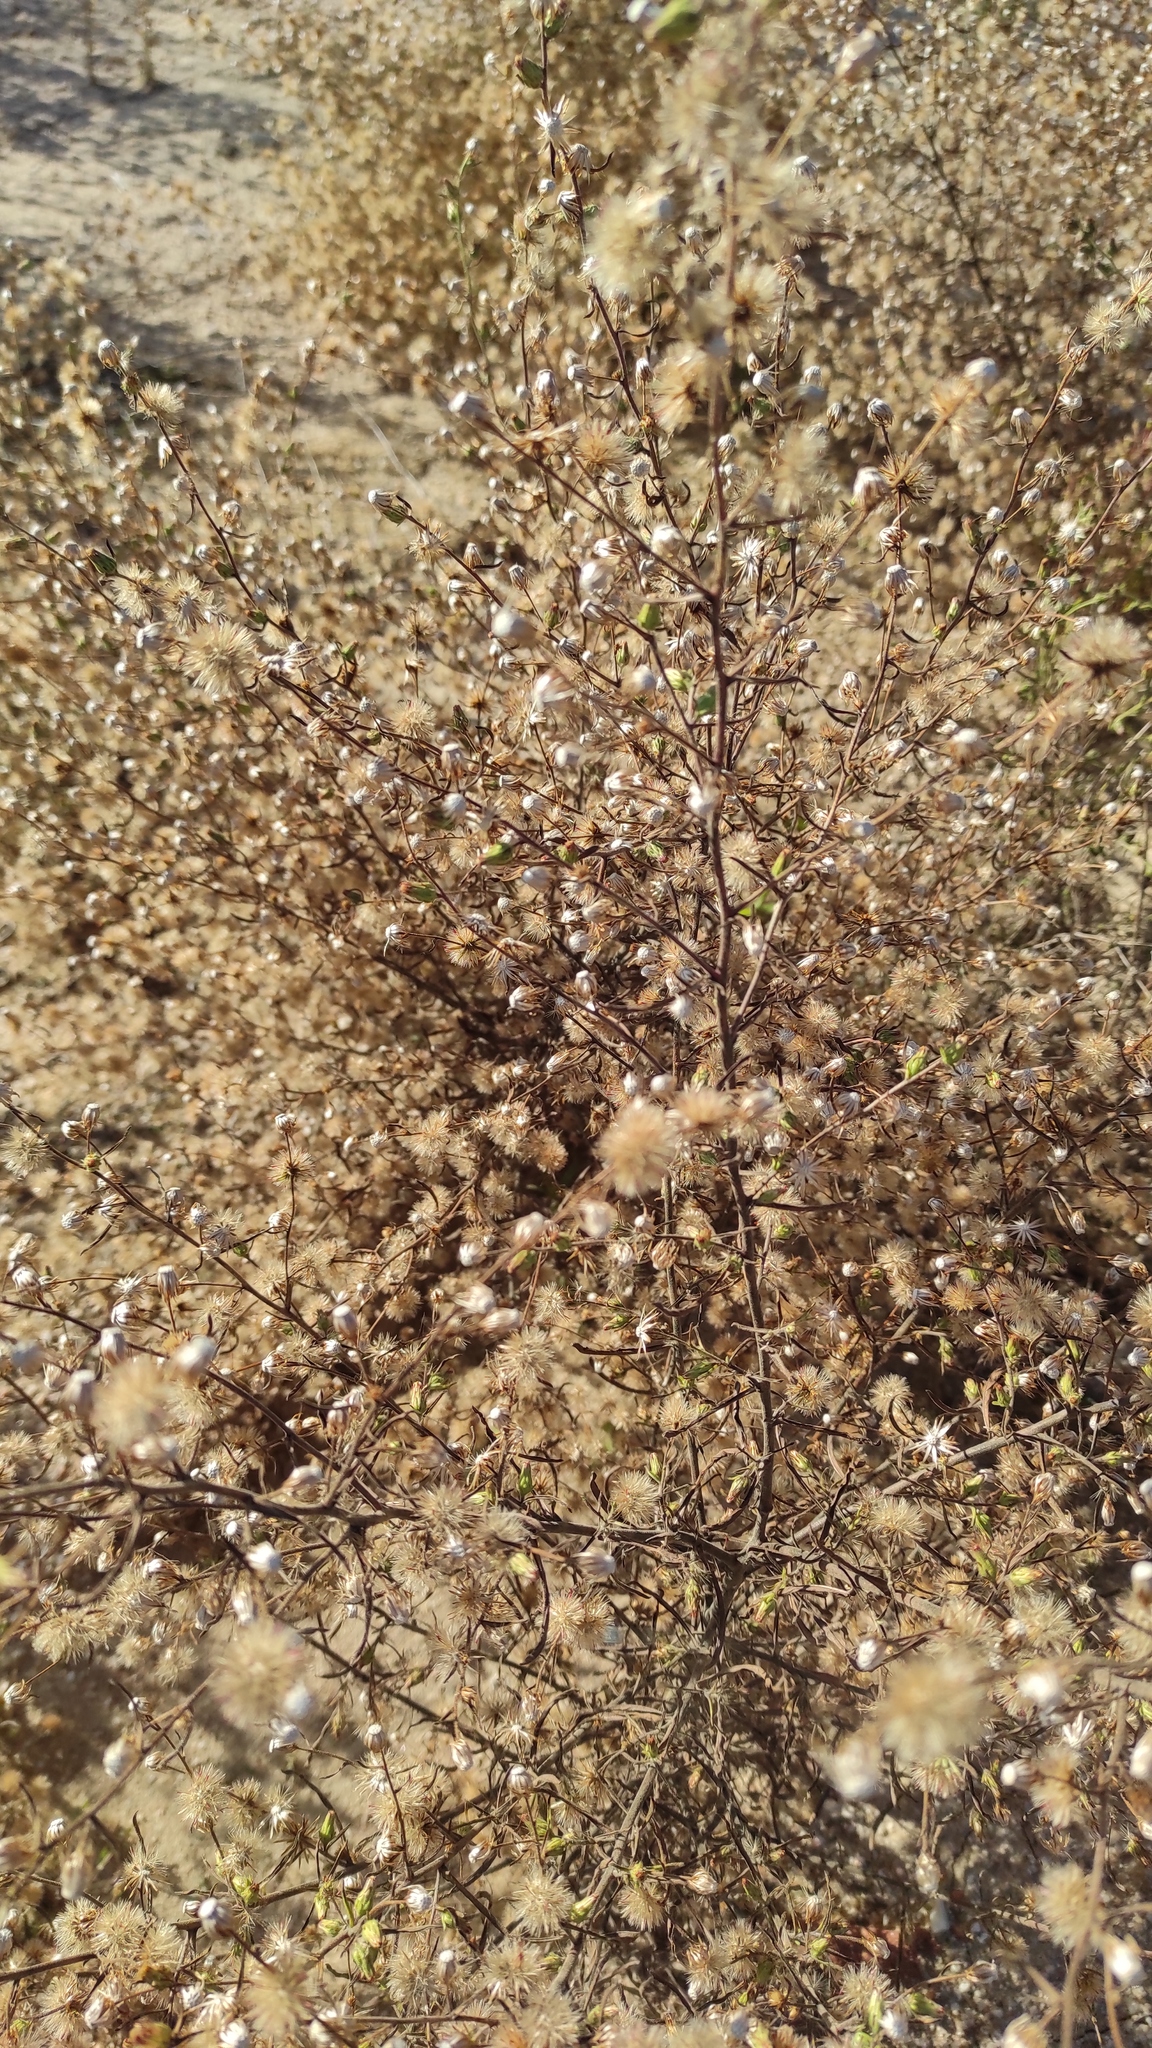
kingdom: Plantae
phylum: Tracheophyta
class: Magnoliopsida
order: Asterales
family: Asteraceae
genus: Dittrichia
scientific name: Dittrichia viscosa
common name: Woody fleabane
